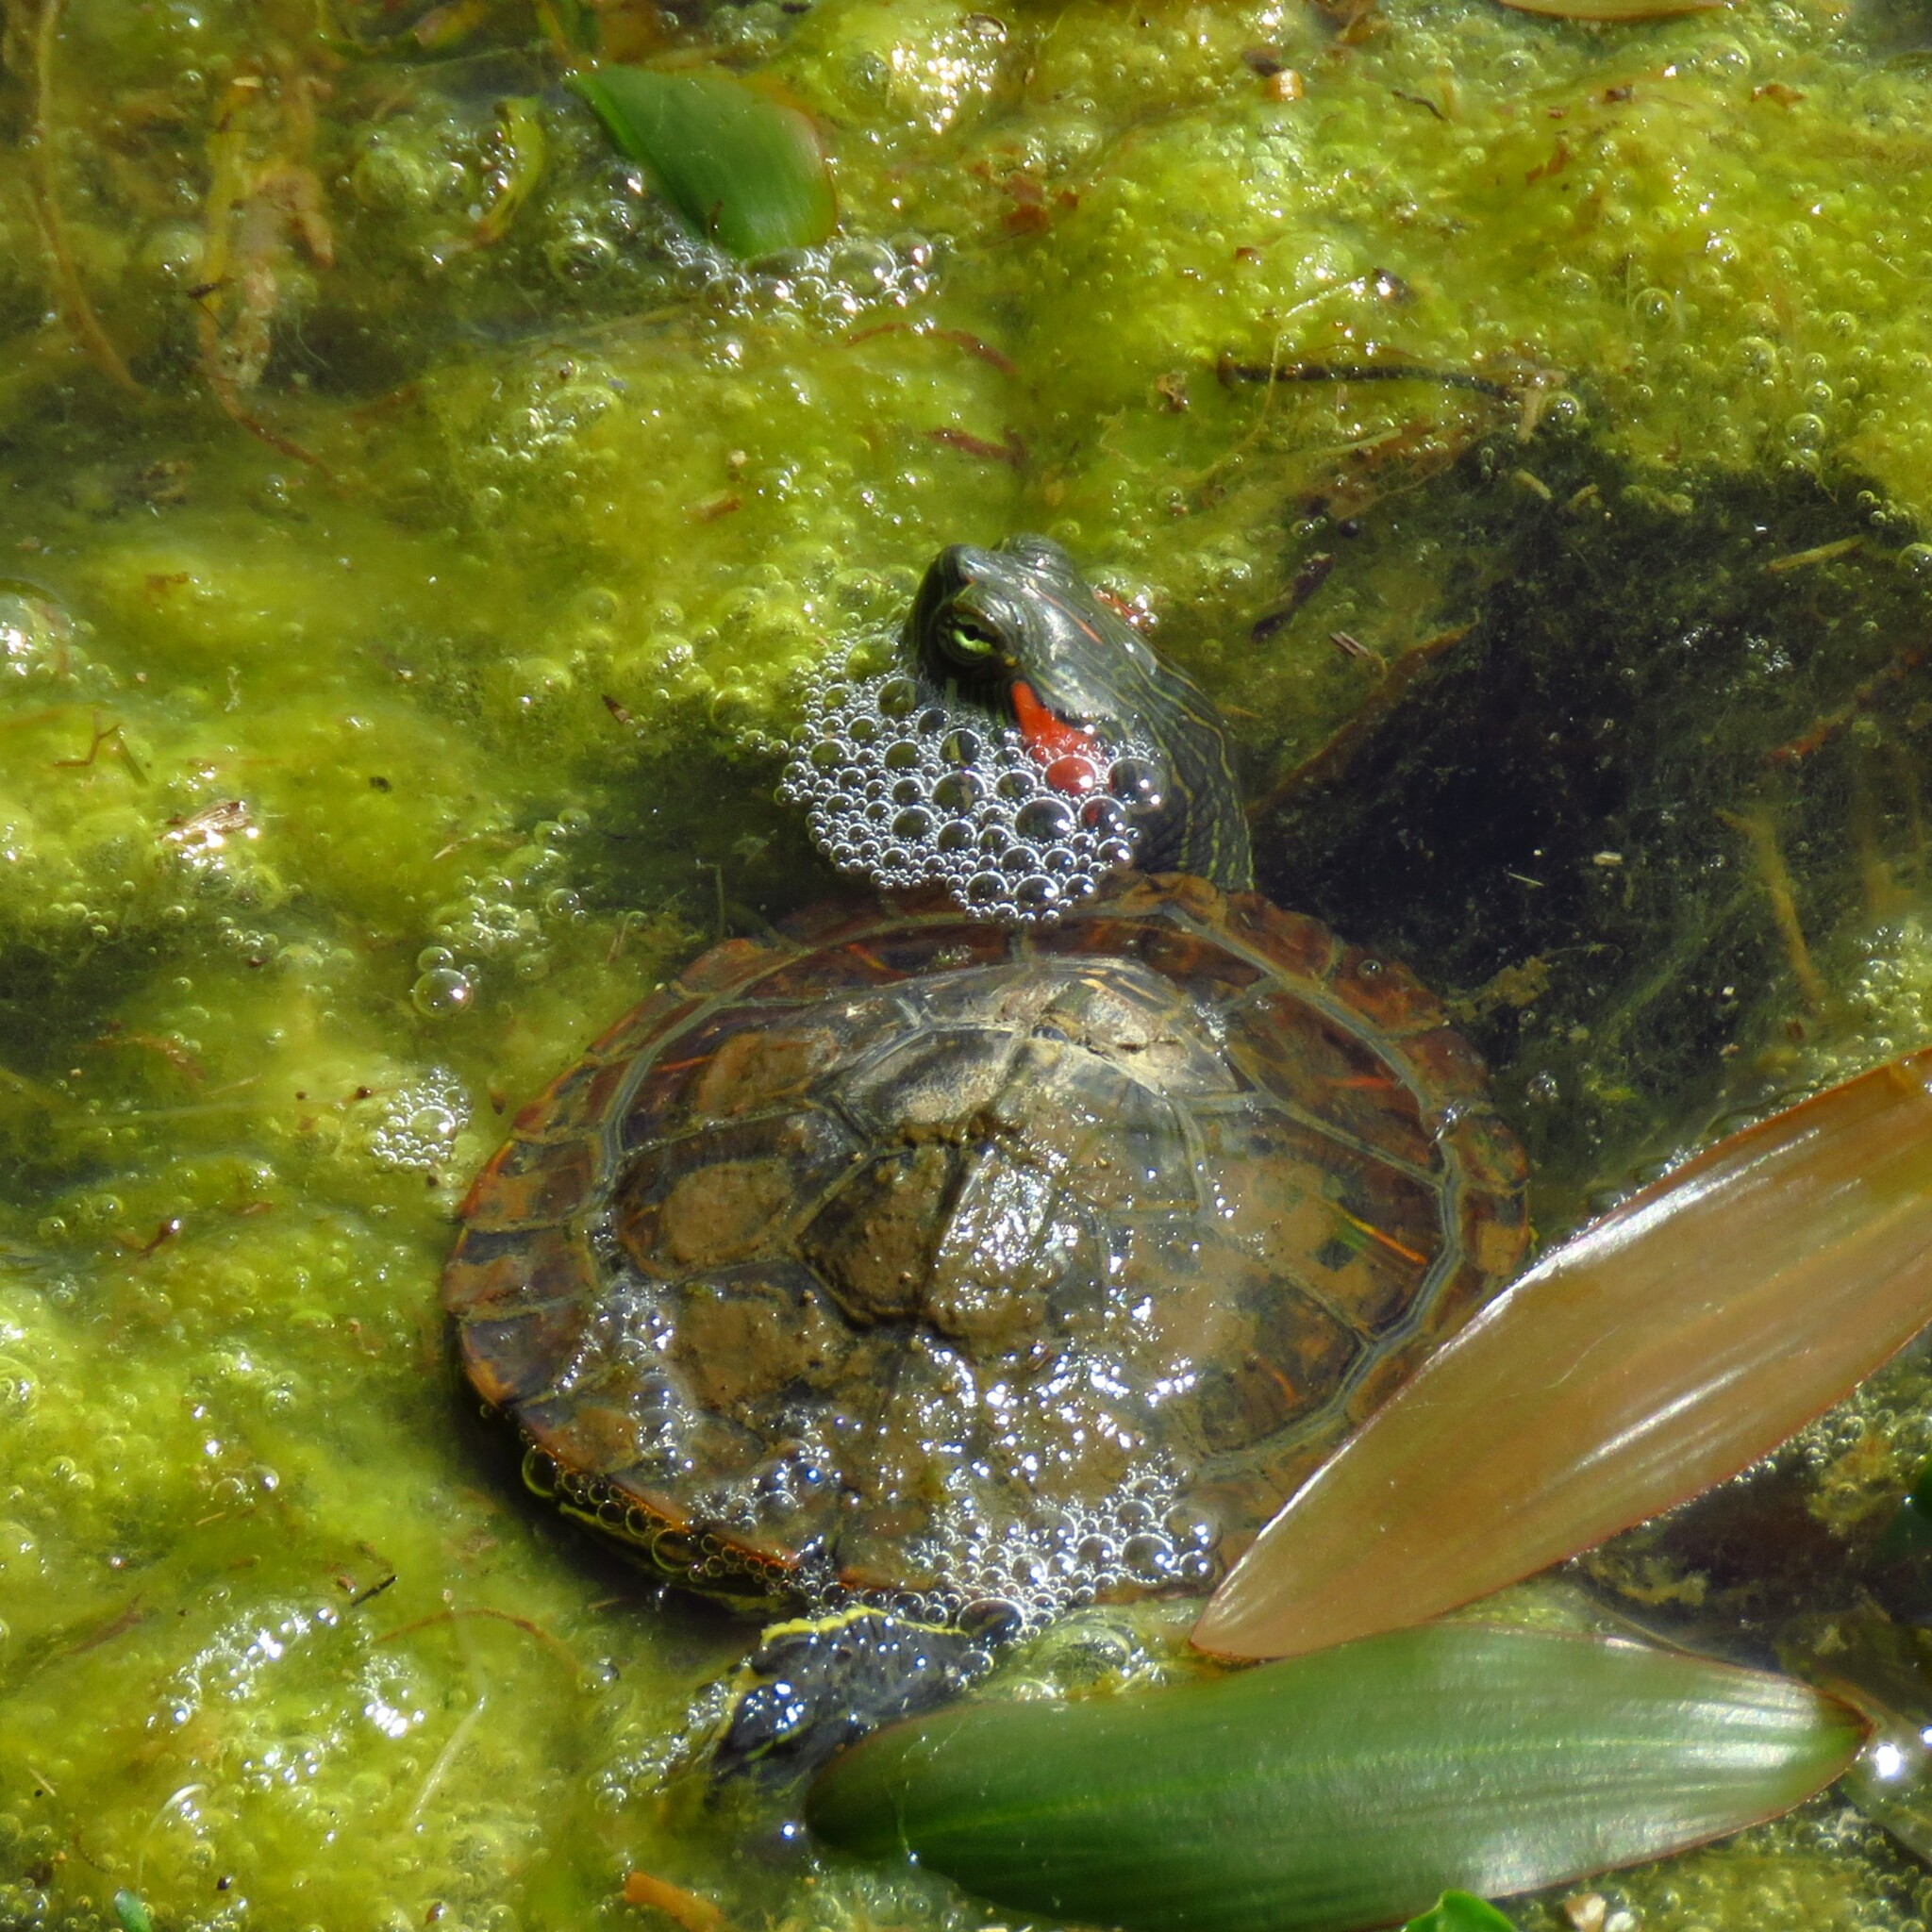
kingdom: Animalia
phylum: Chordata
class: Testudines
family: Emydidae
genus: Trachemys
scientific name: Trachemys scripta
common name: Slider
